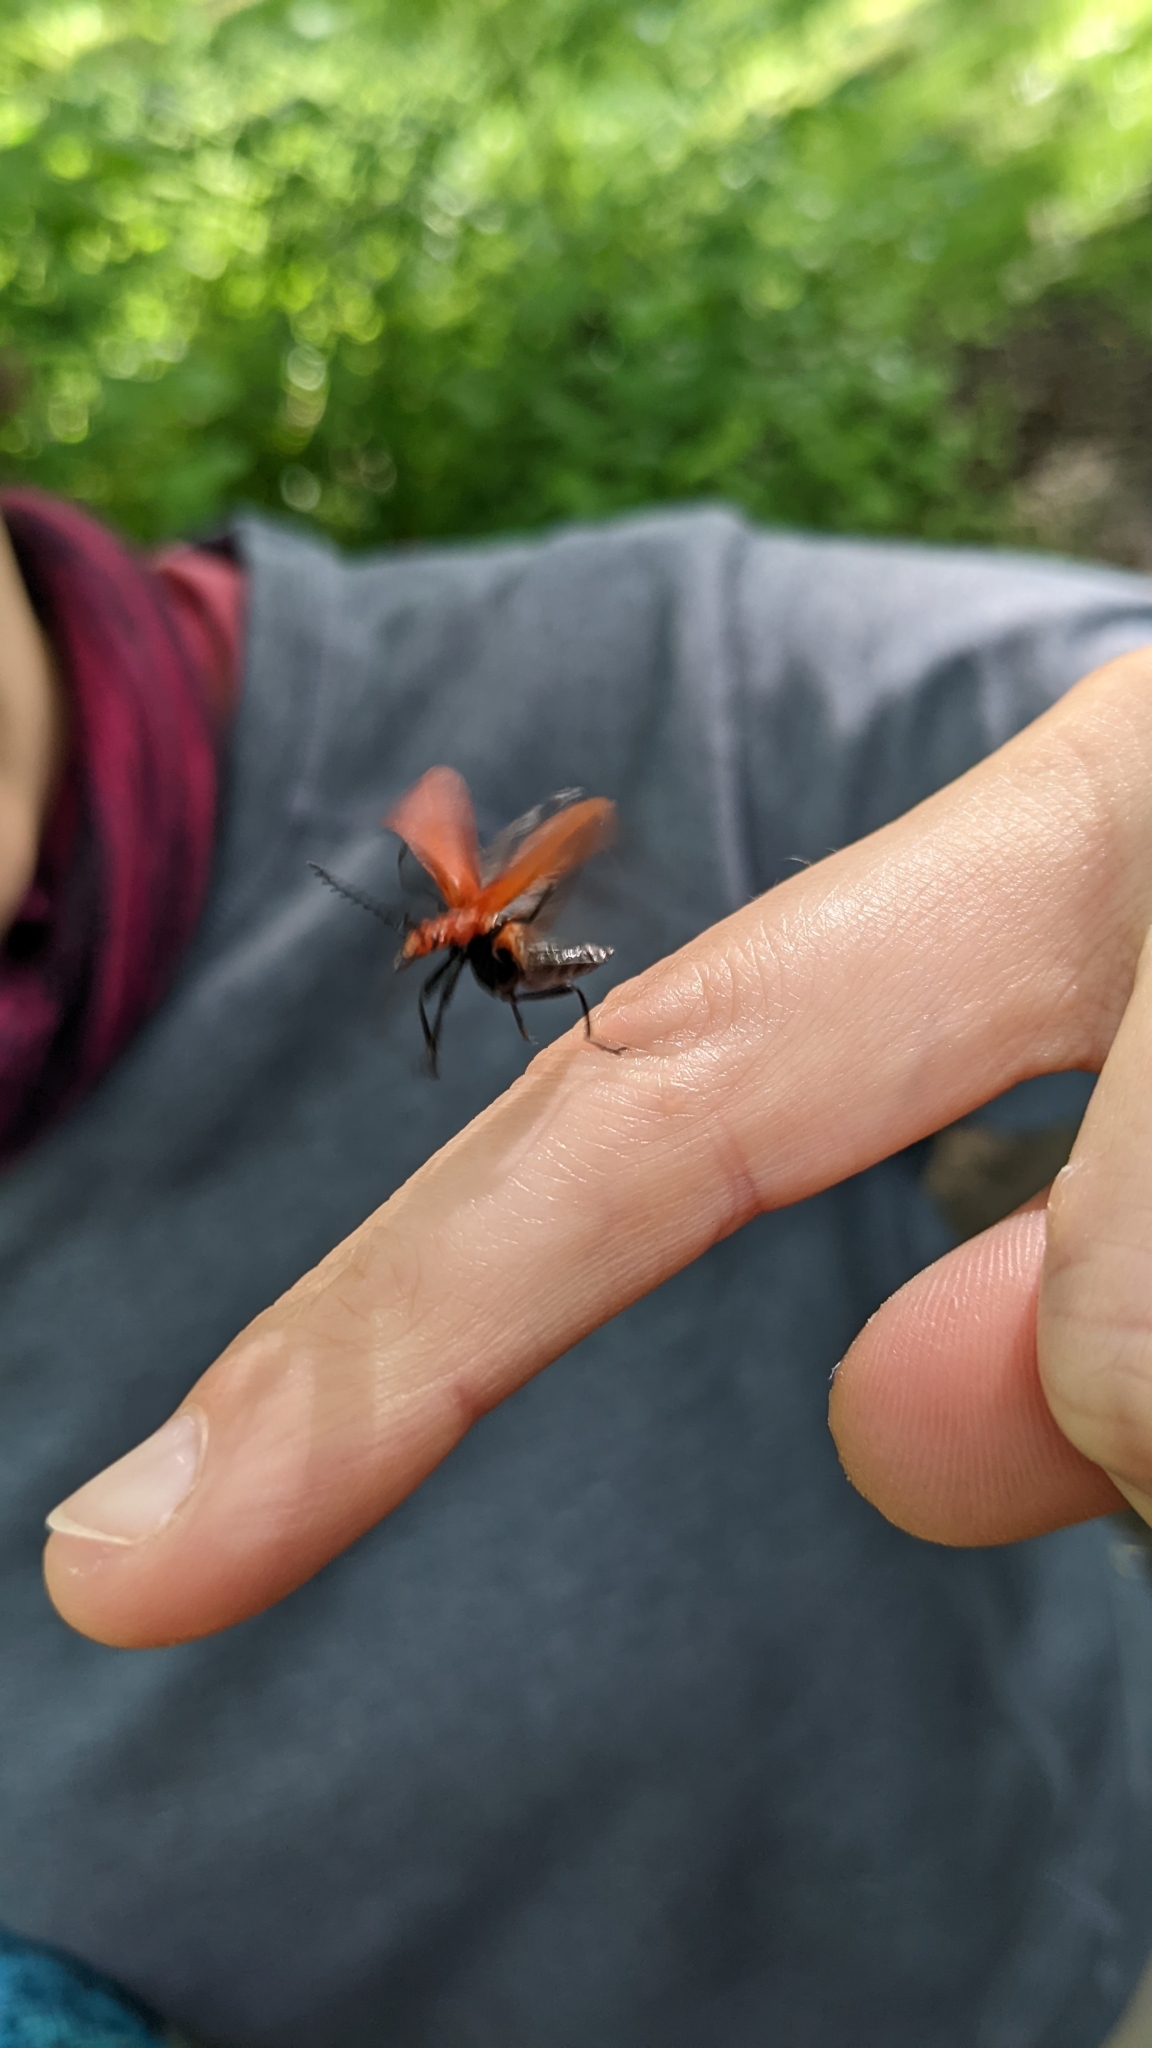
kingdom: Animalia
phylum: Arthropoda
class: Insecta
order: Coleoptera
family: Pyrochroidae
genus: Pyrochroa
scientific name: Pyrochroa serraticornis
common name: Red-headed cardinal beetle
